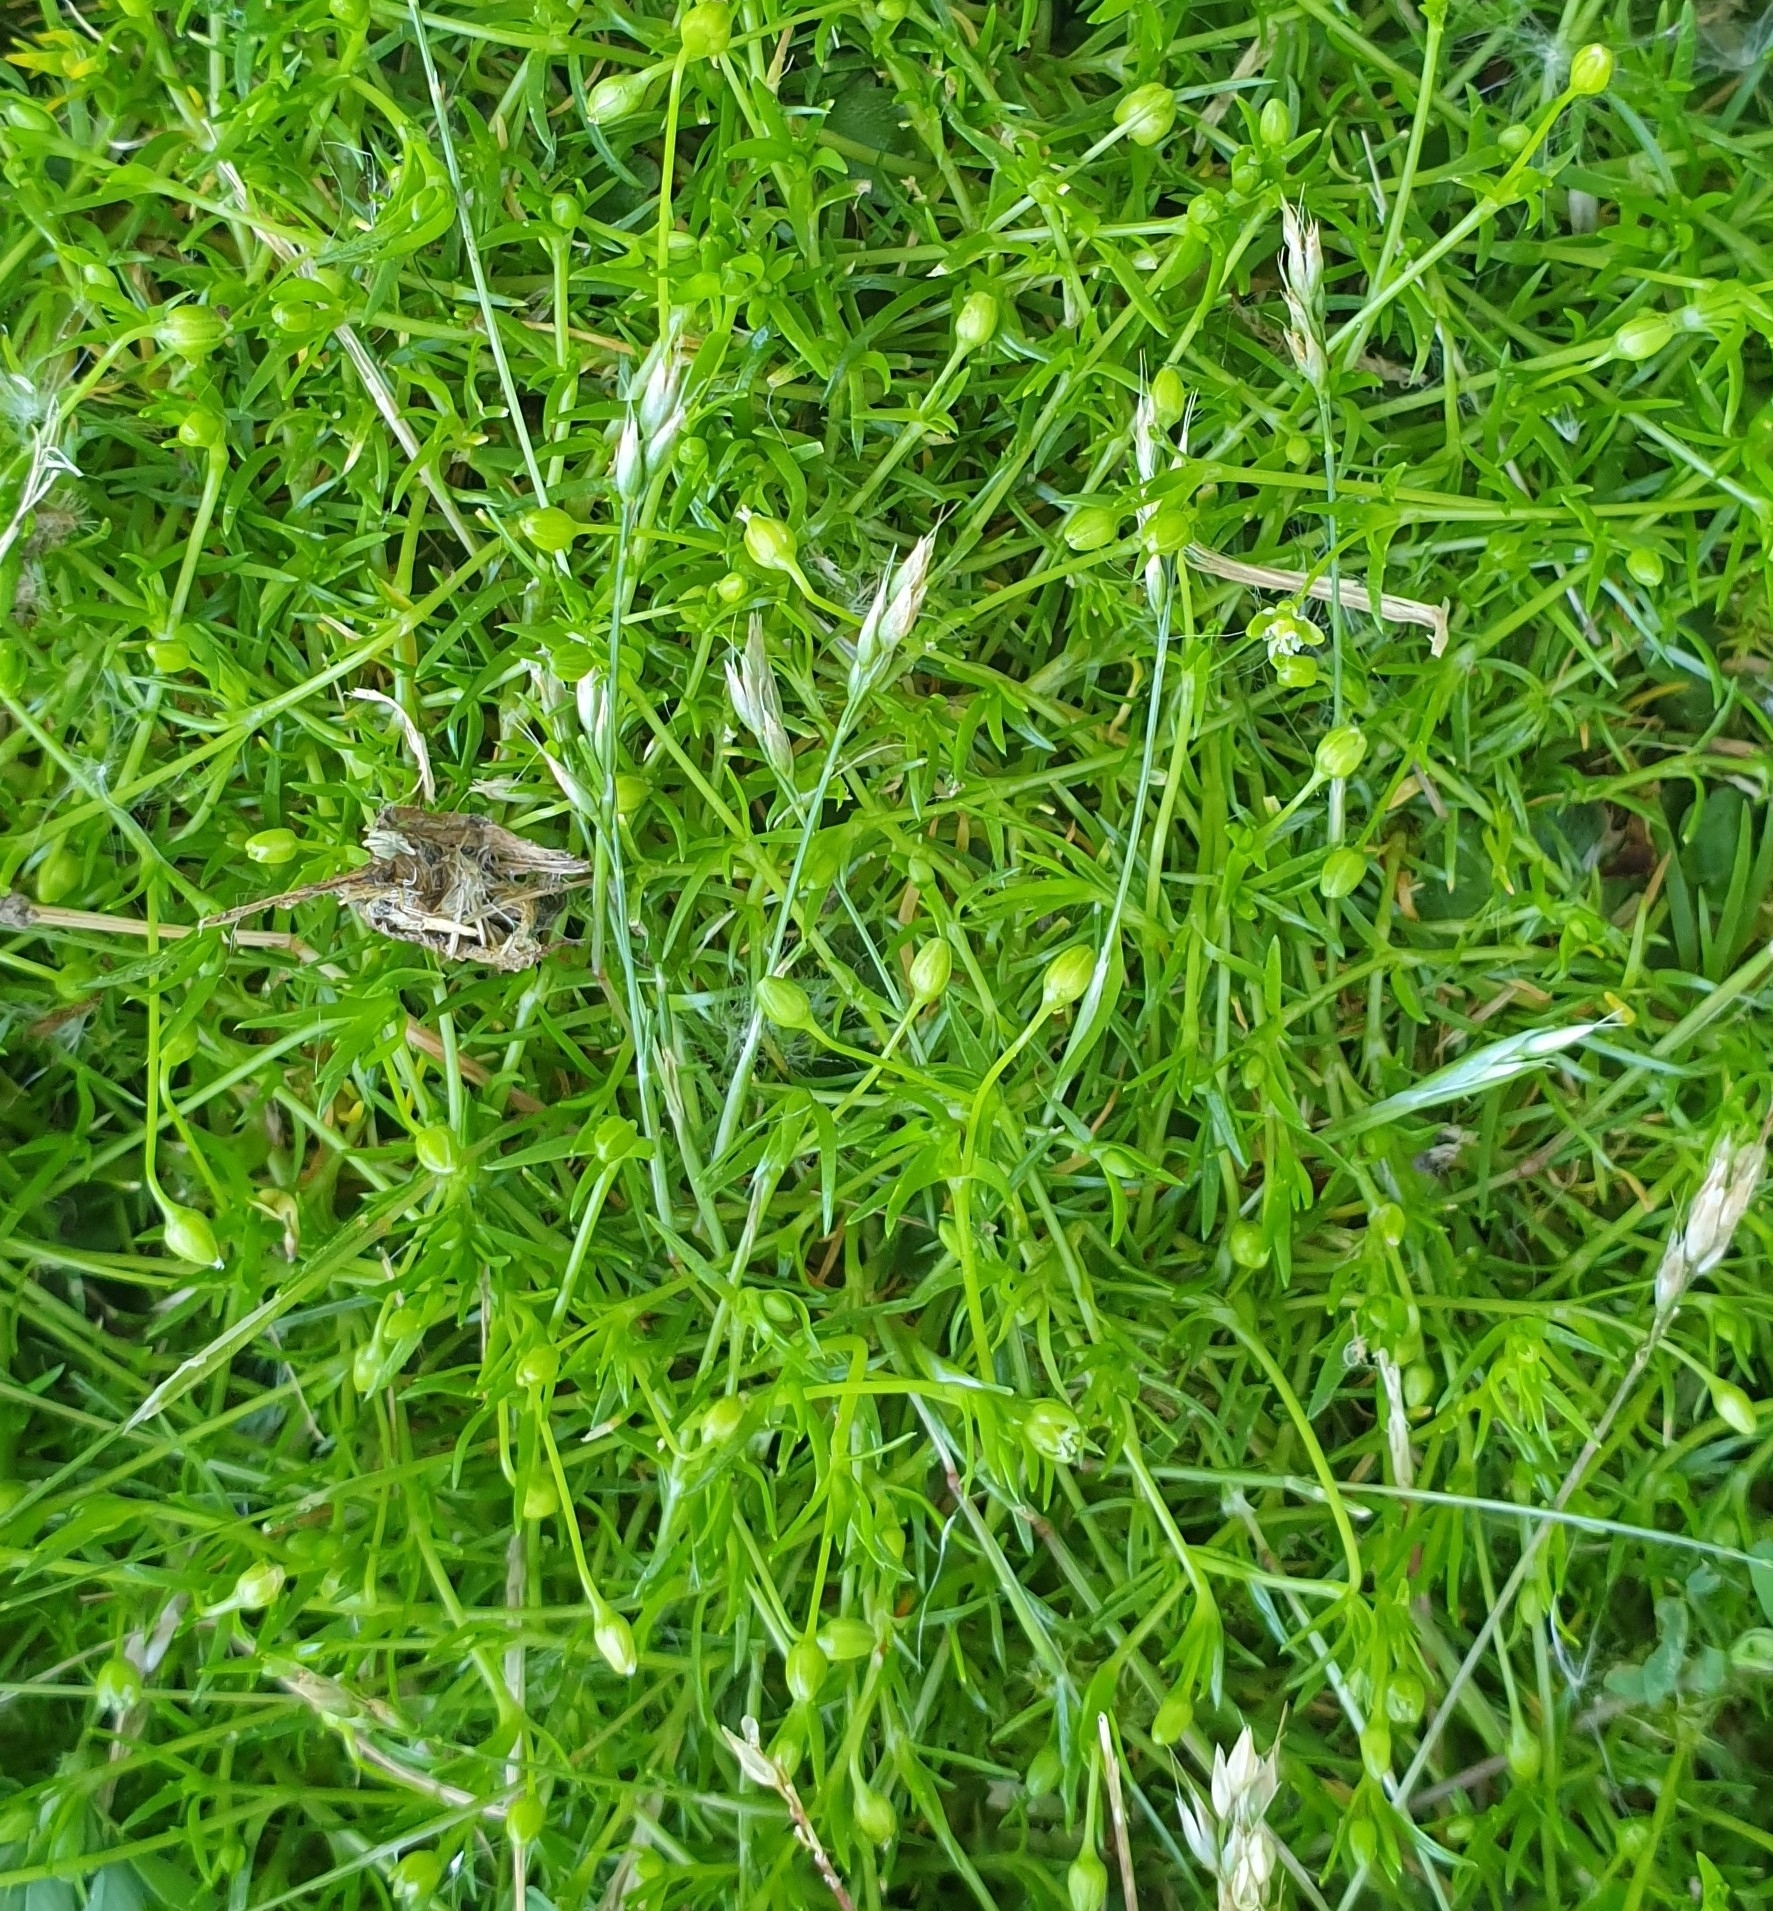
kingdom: Plantae
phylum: Tracheophyta
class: Magnoliopsida
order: Caryophyllales
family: Caryophyllaceae
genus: Sagina
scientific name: Sagina procumbens
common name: Procumbent pearlwort
